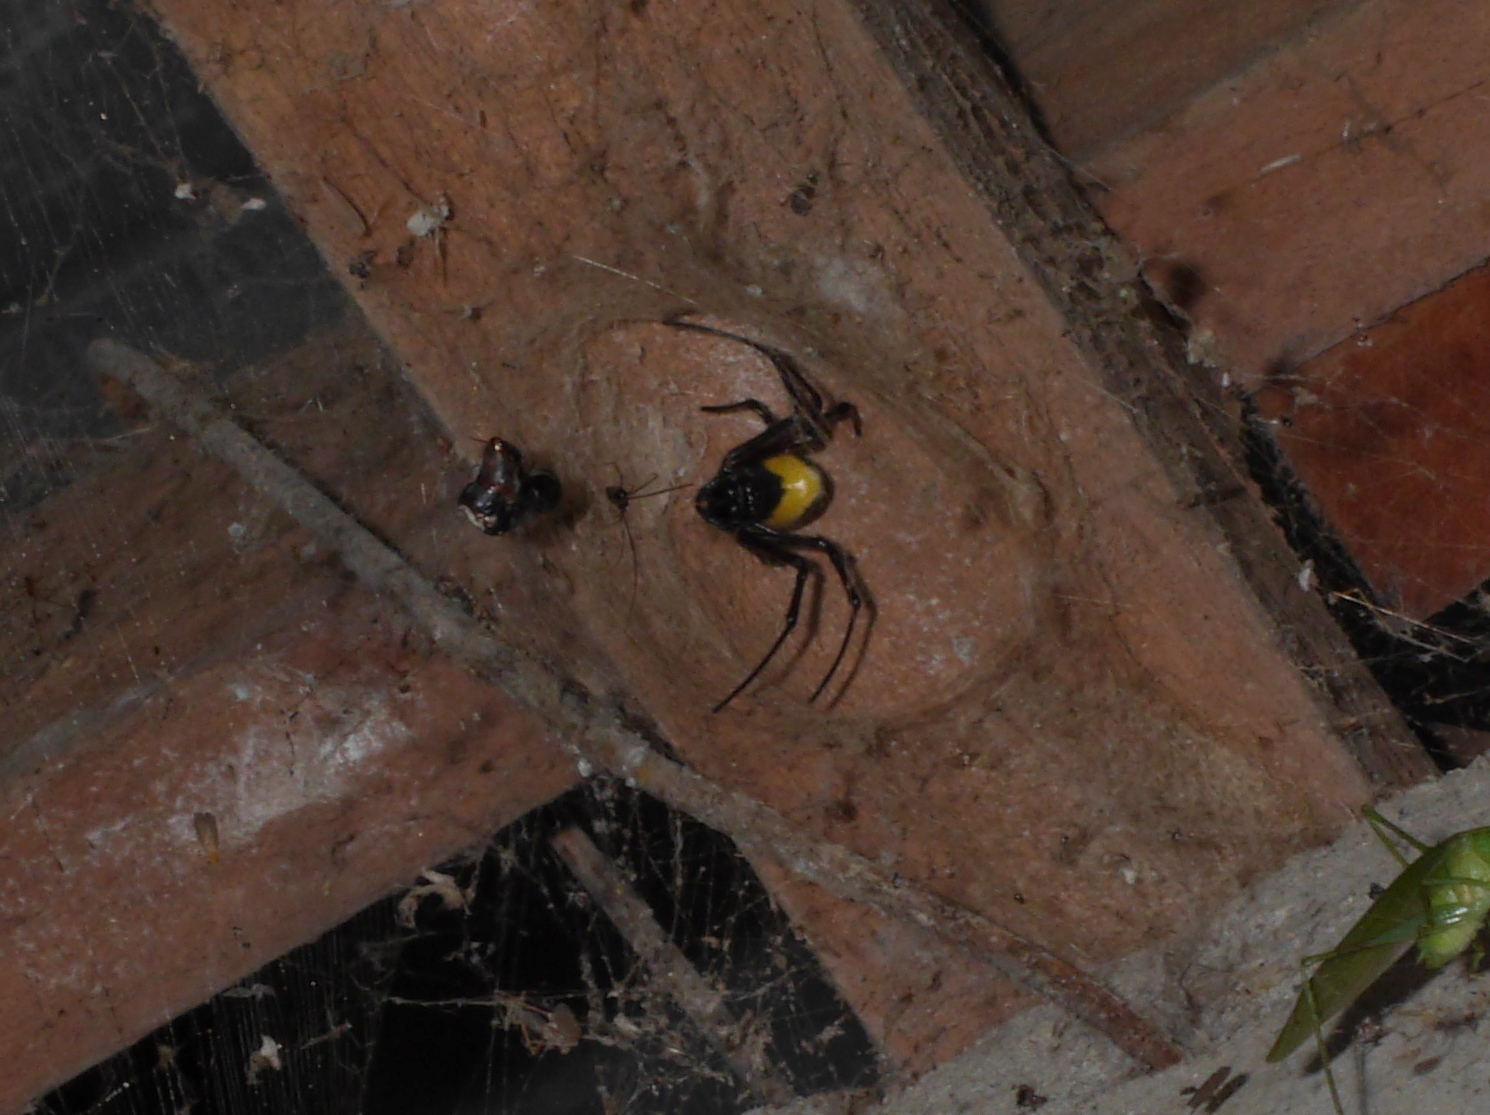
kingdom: Animalia
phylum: Arthropoda
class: Arachnida
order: Araneae
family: Araneidae
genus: Nephilingis
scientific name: Nephilingis cruentata
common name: African hermit spider
